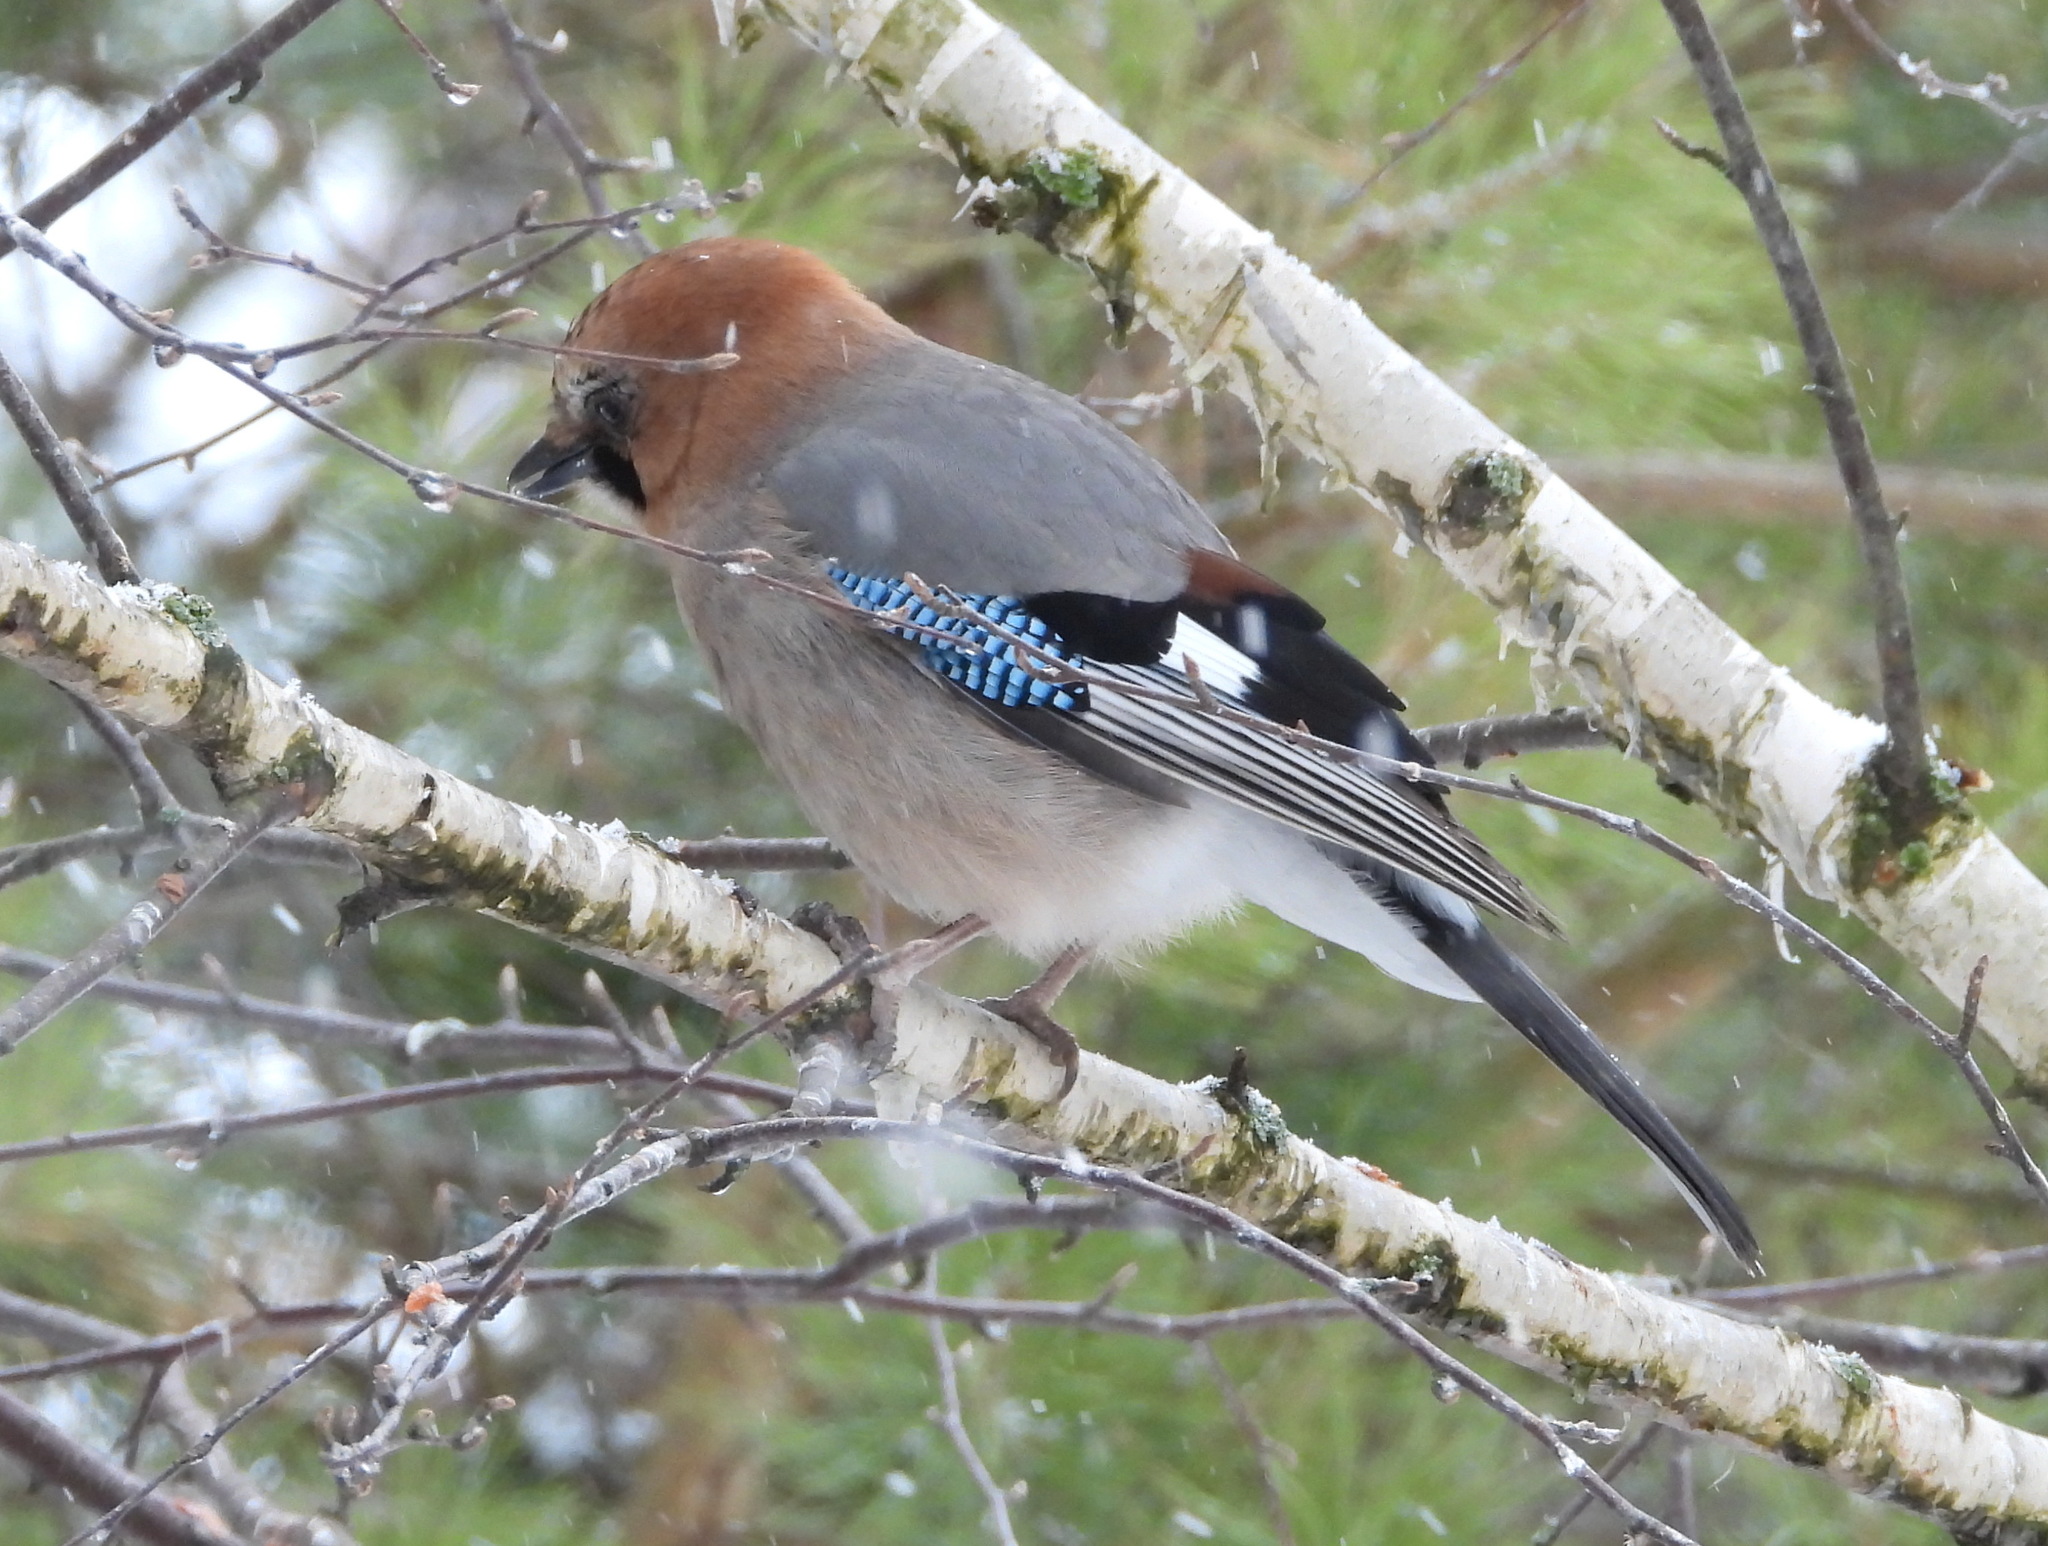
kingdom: Animalia
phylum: Chordata
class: Aves
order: Passeriformes
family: Corvidae
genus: Garrulus
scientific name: Garrulus glandarius
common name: Eurasian jay
